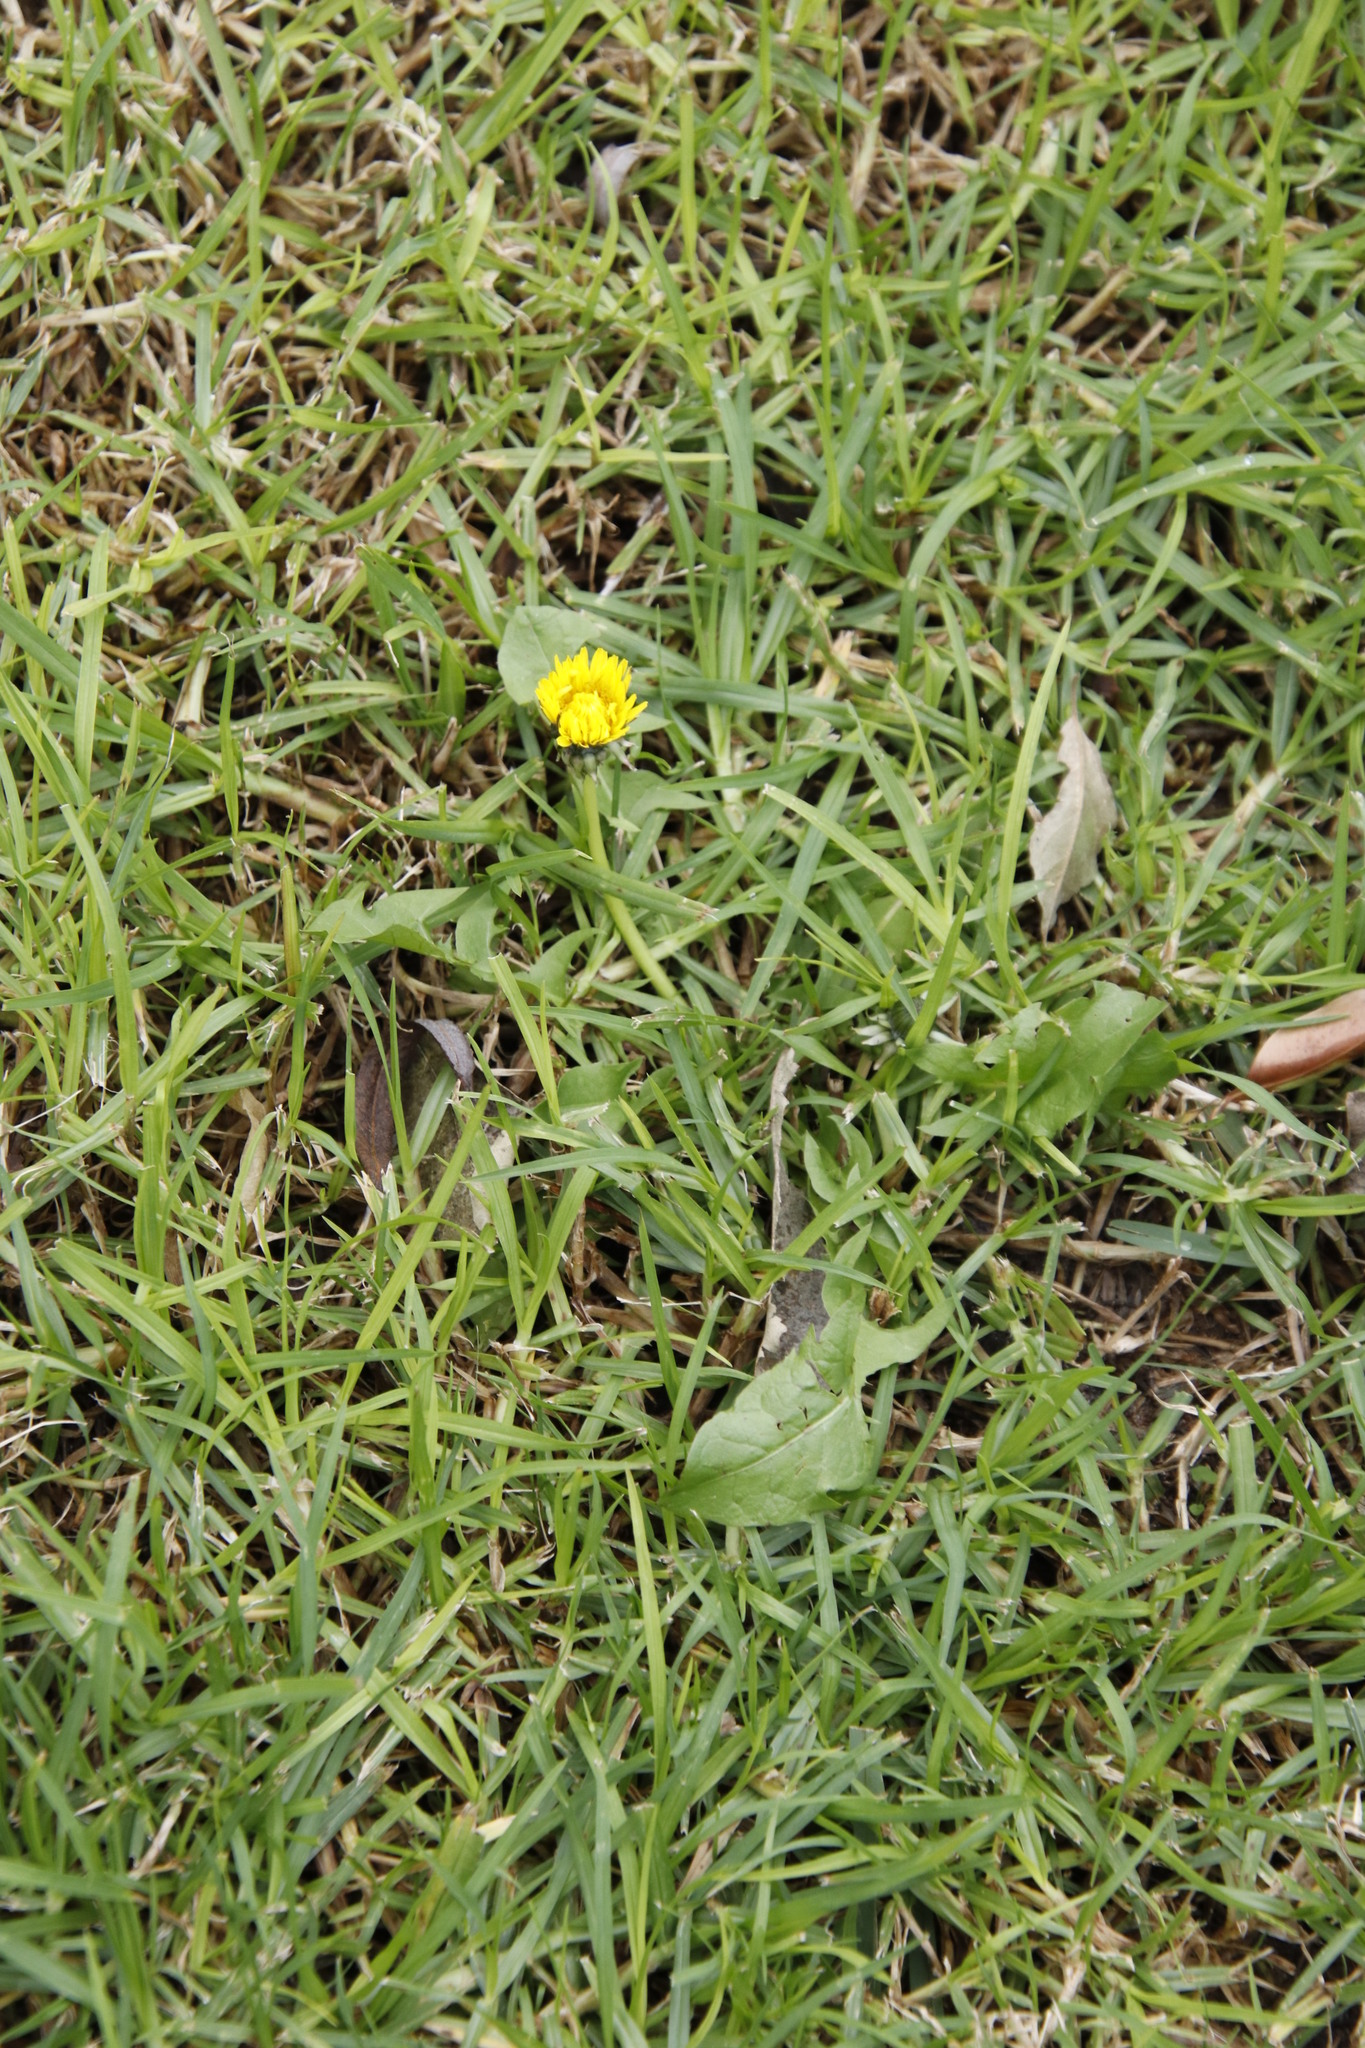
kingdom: Plantae
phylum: Tracheophyta
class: Magnoliopsida
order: Asterales
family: Asteraceae
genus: Taraxacum
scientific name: Taraxacum officinale
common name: Common dandelion
